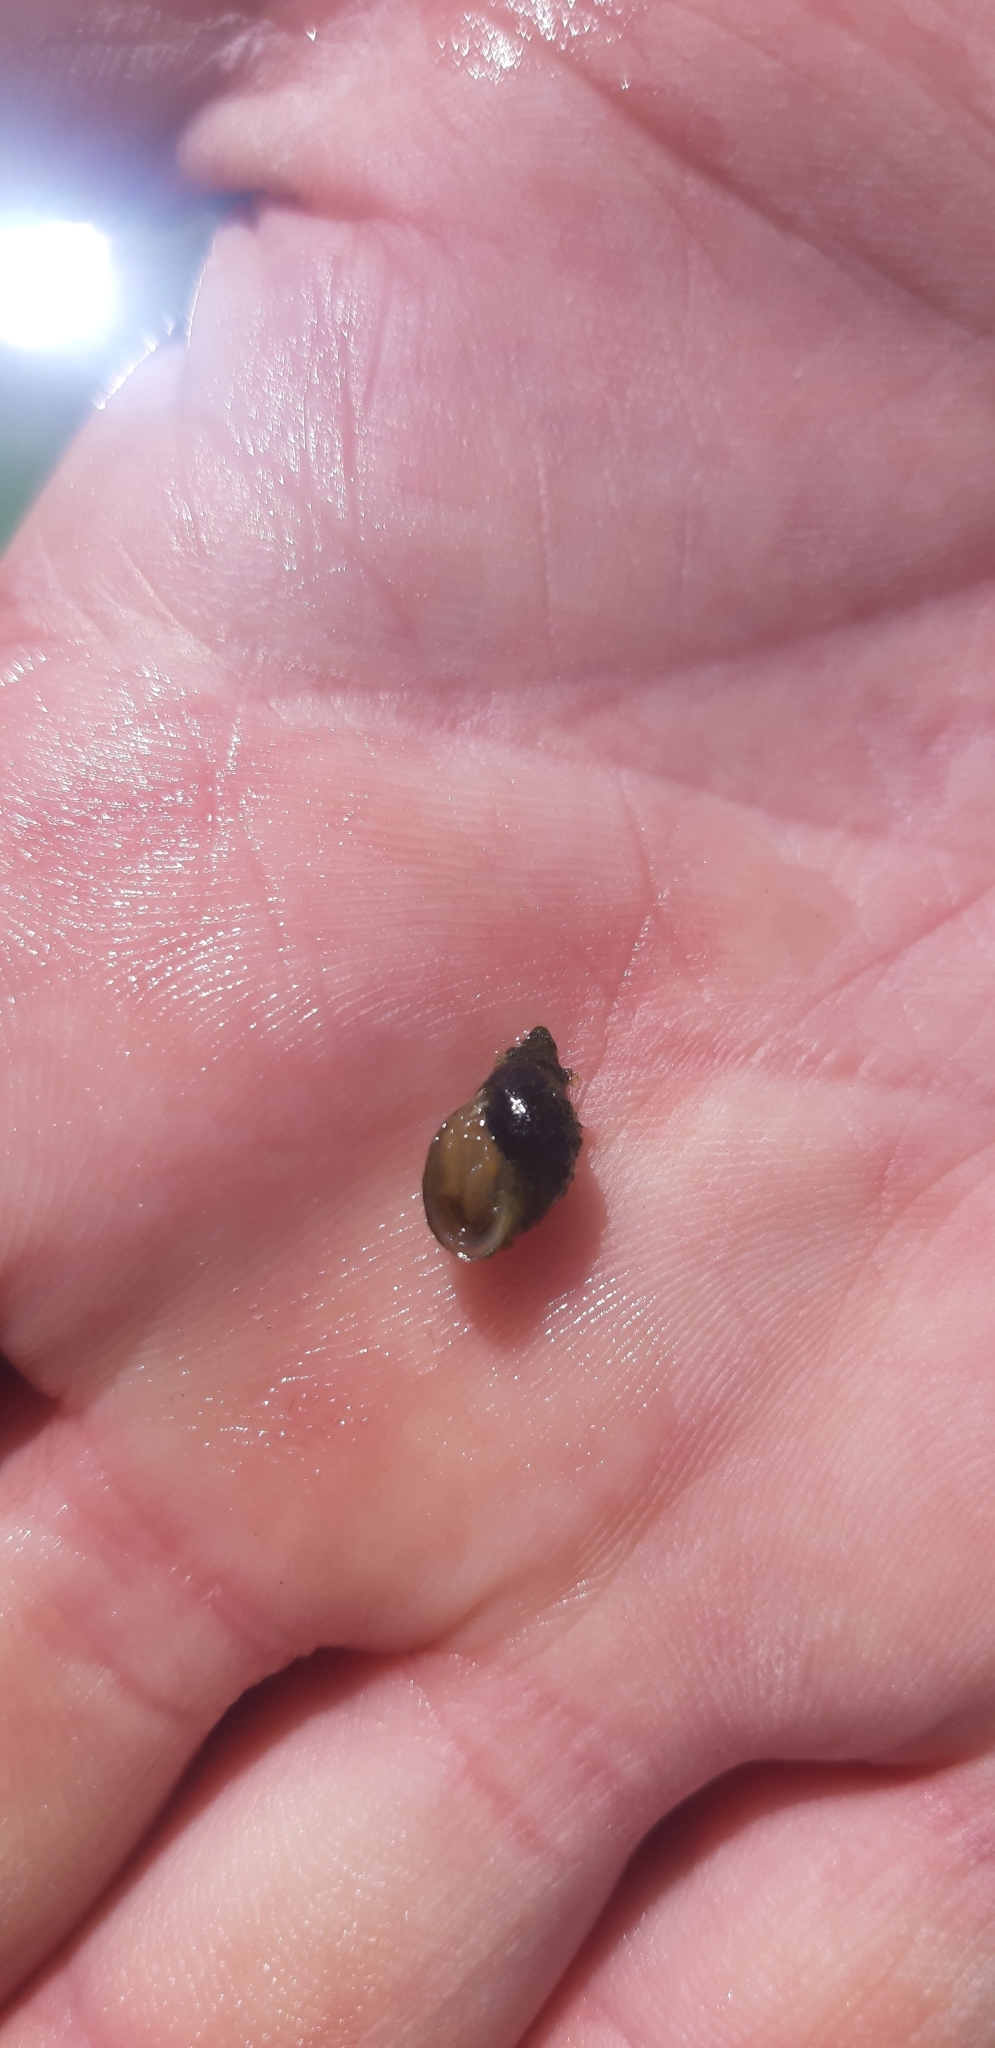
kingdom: Animalia
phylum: Mollusca
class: Gastropoda
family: Physidae
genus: Physella
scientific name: Physella acuta
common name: European physa
